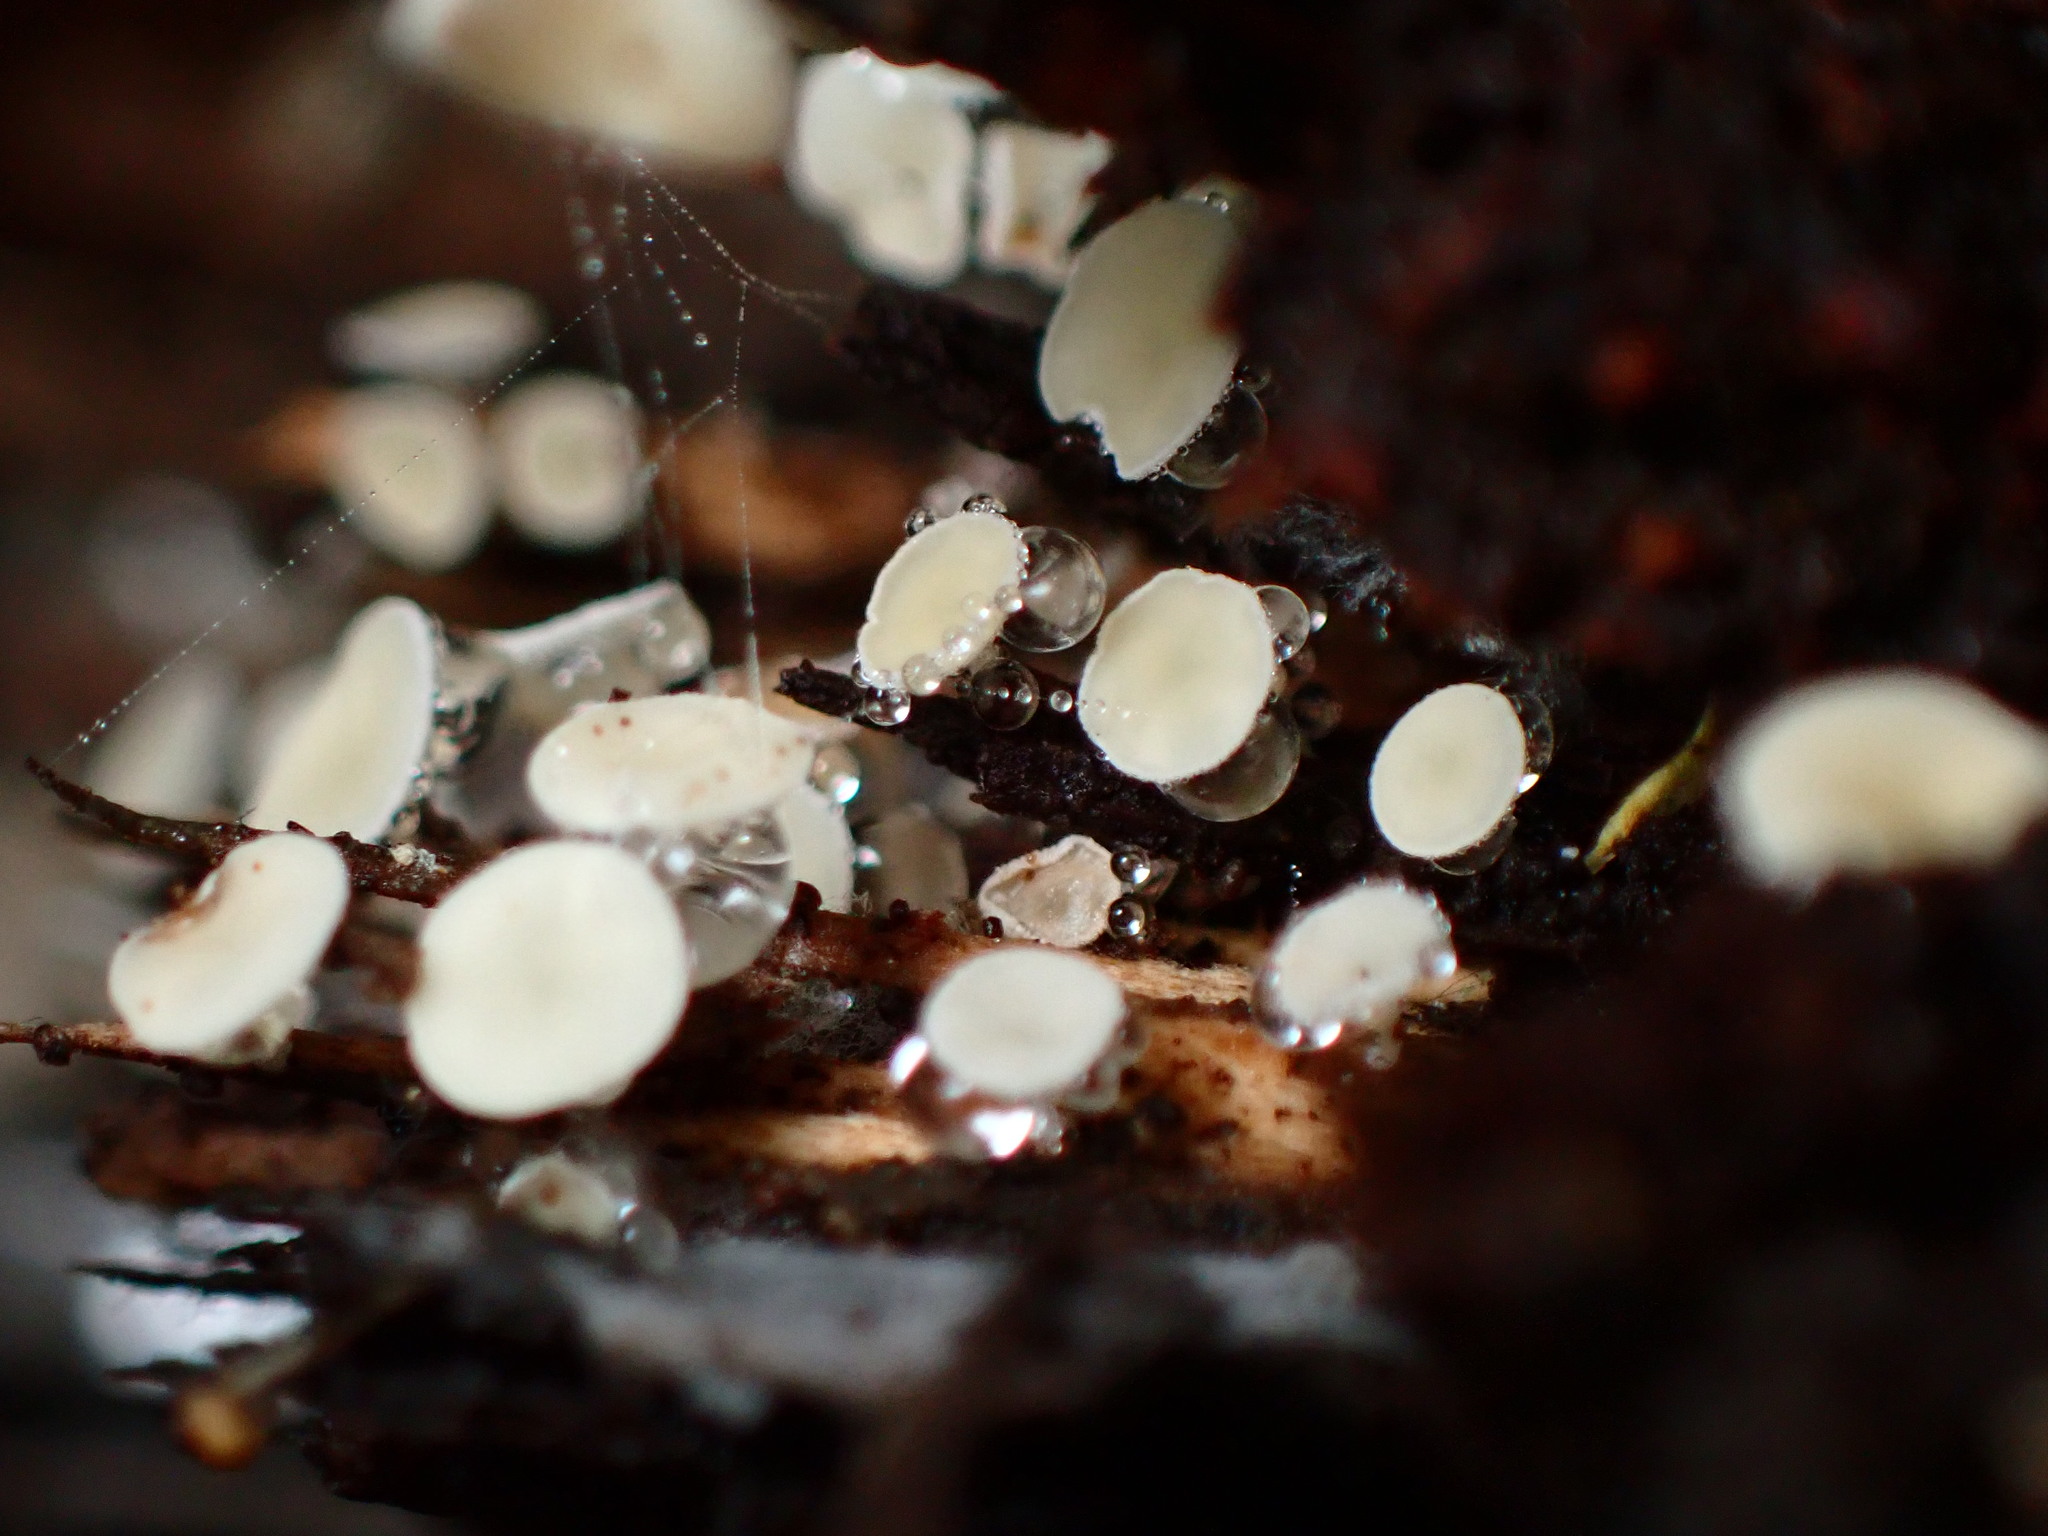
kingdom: Fungi
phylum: Ascomycota
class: Leotiomycetes
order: Helotiales
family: Lachnaceae
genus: Lachnum
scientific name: Lachnum virgineum
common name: Snowy disco
